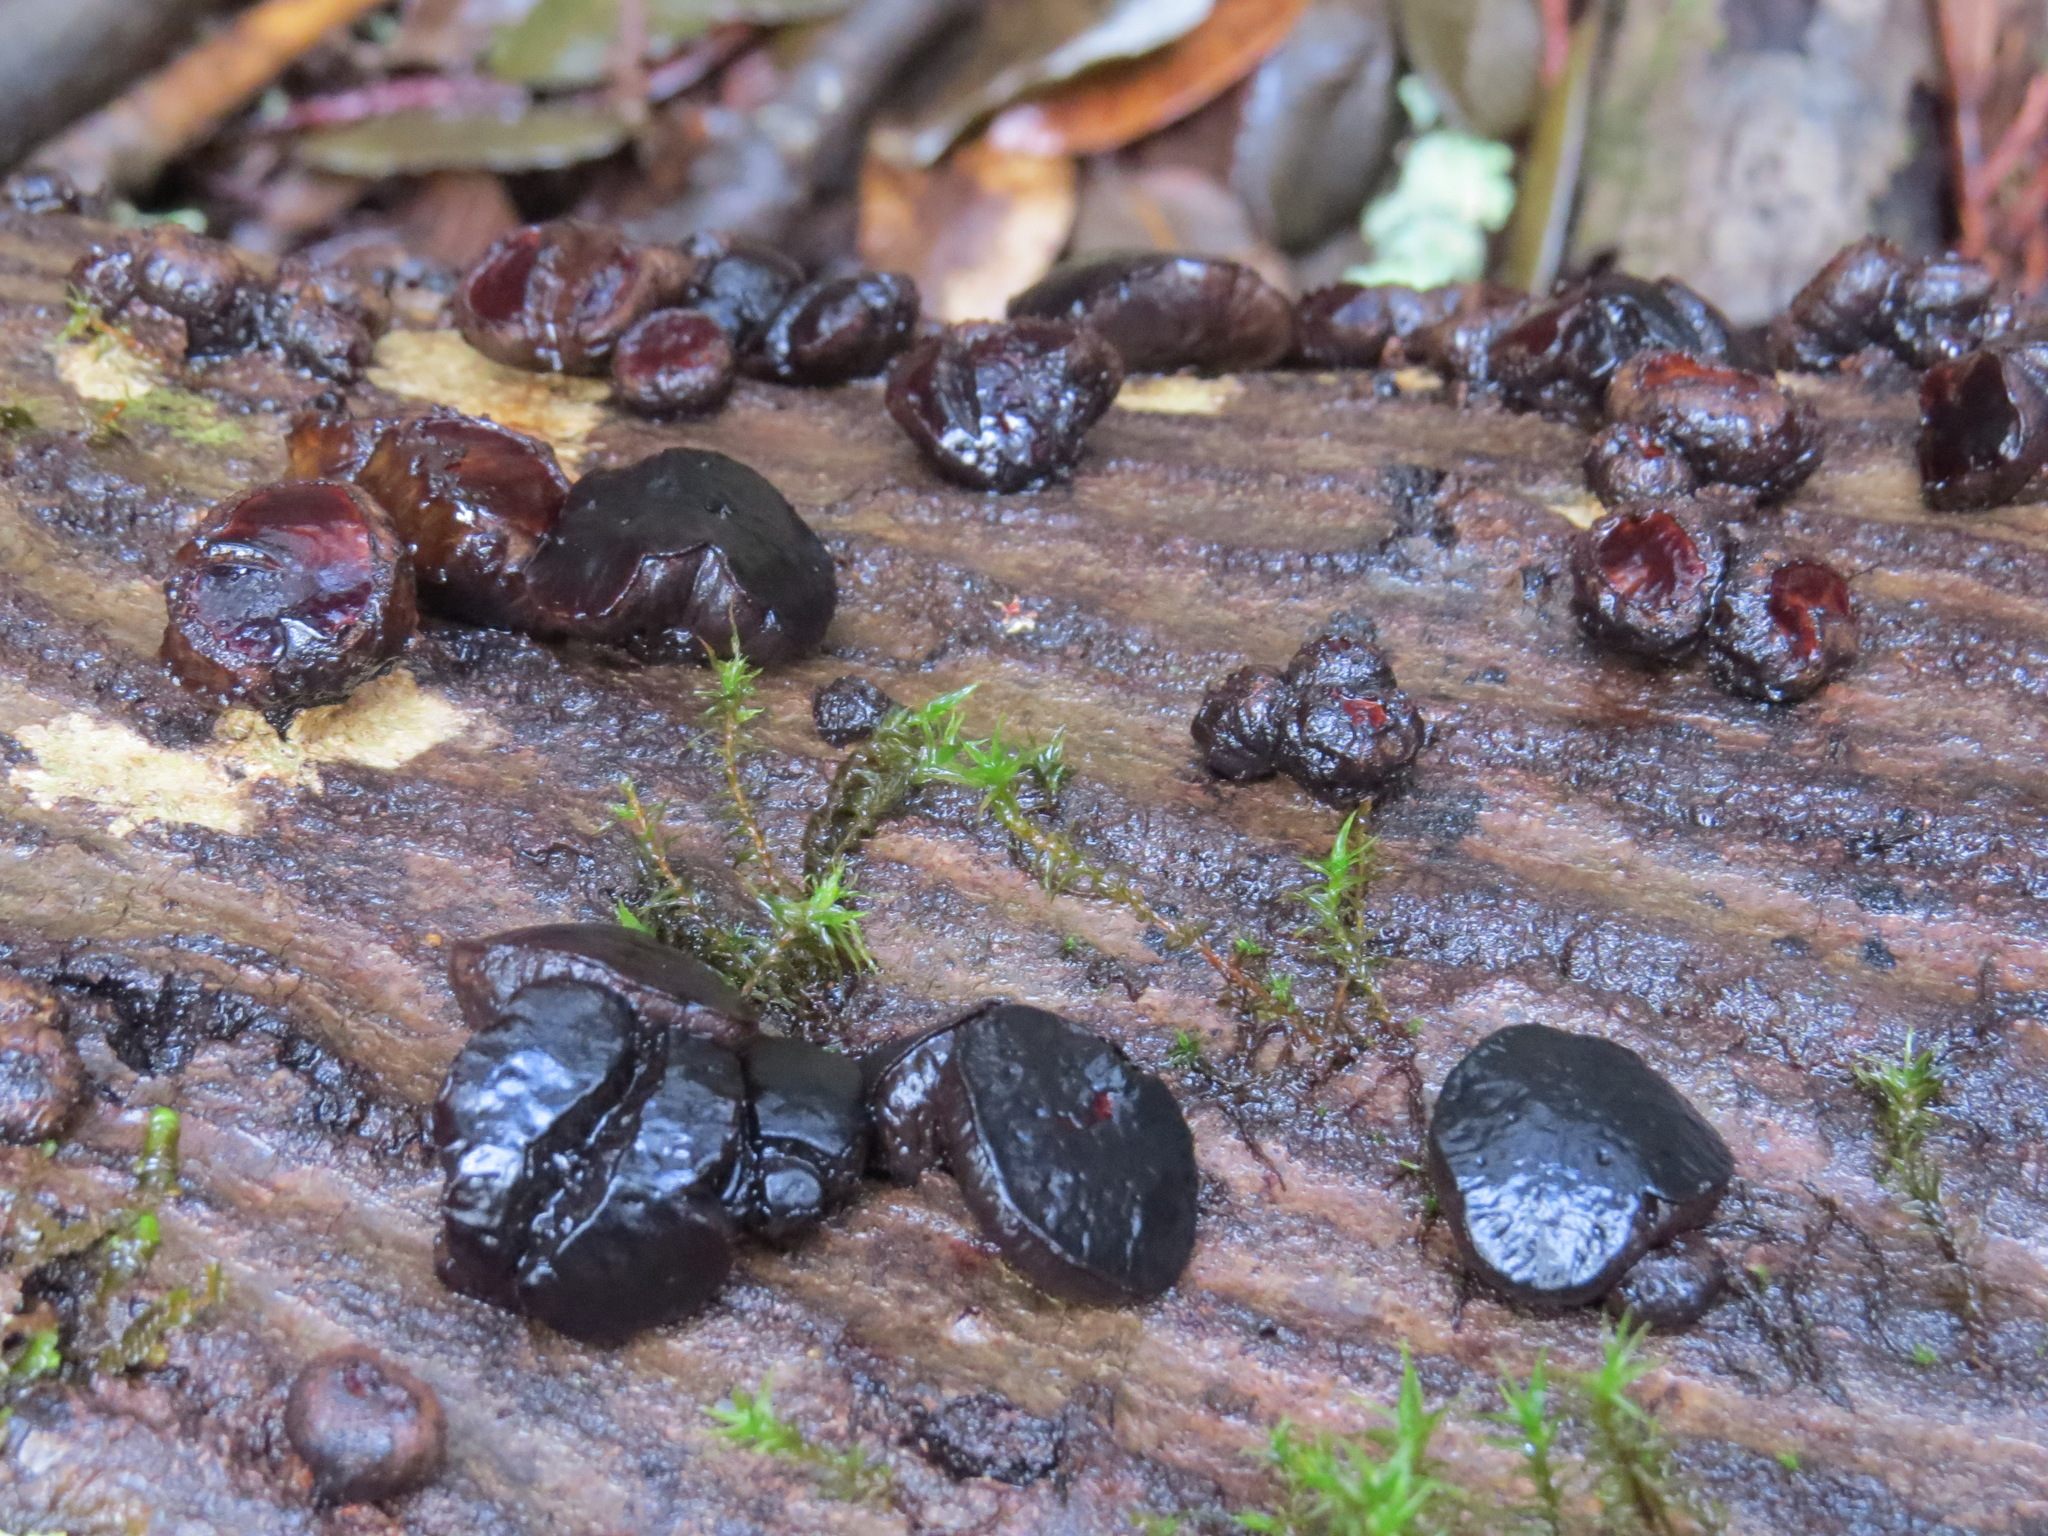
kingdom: Fungi
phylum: Ascomycota
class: Leotiomycetes
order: Phacidiales
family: Phacidiaceae
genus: Bulgaria
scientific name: Bulgaria inquinans
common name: Black bulgar
